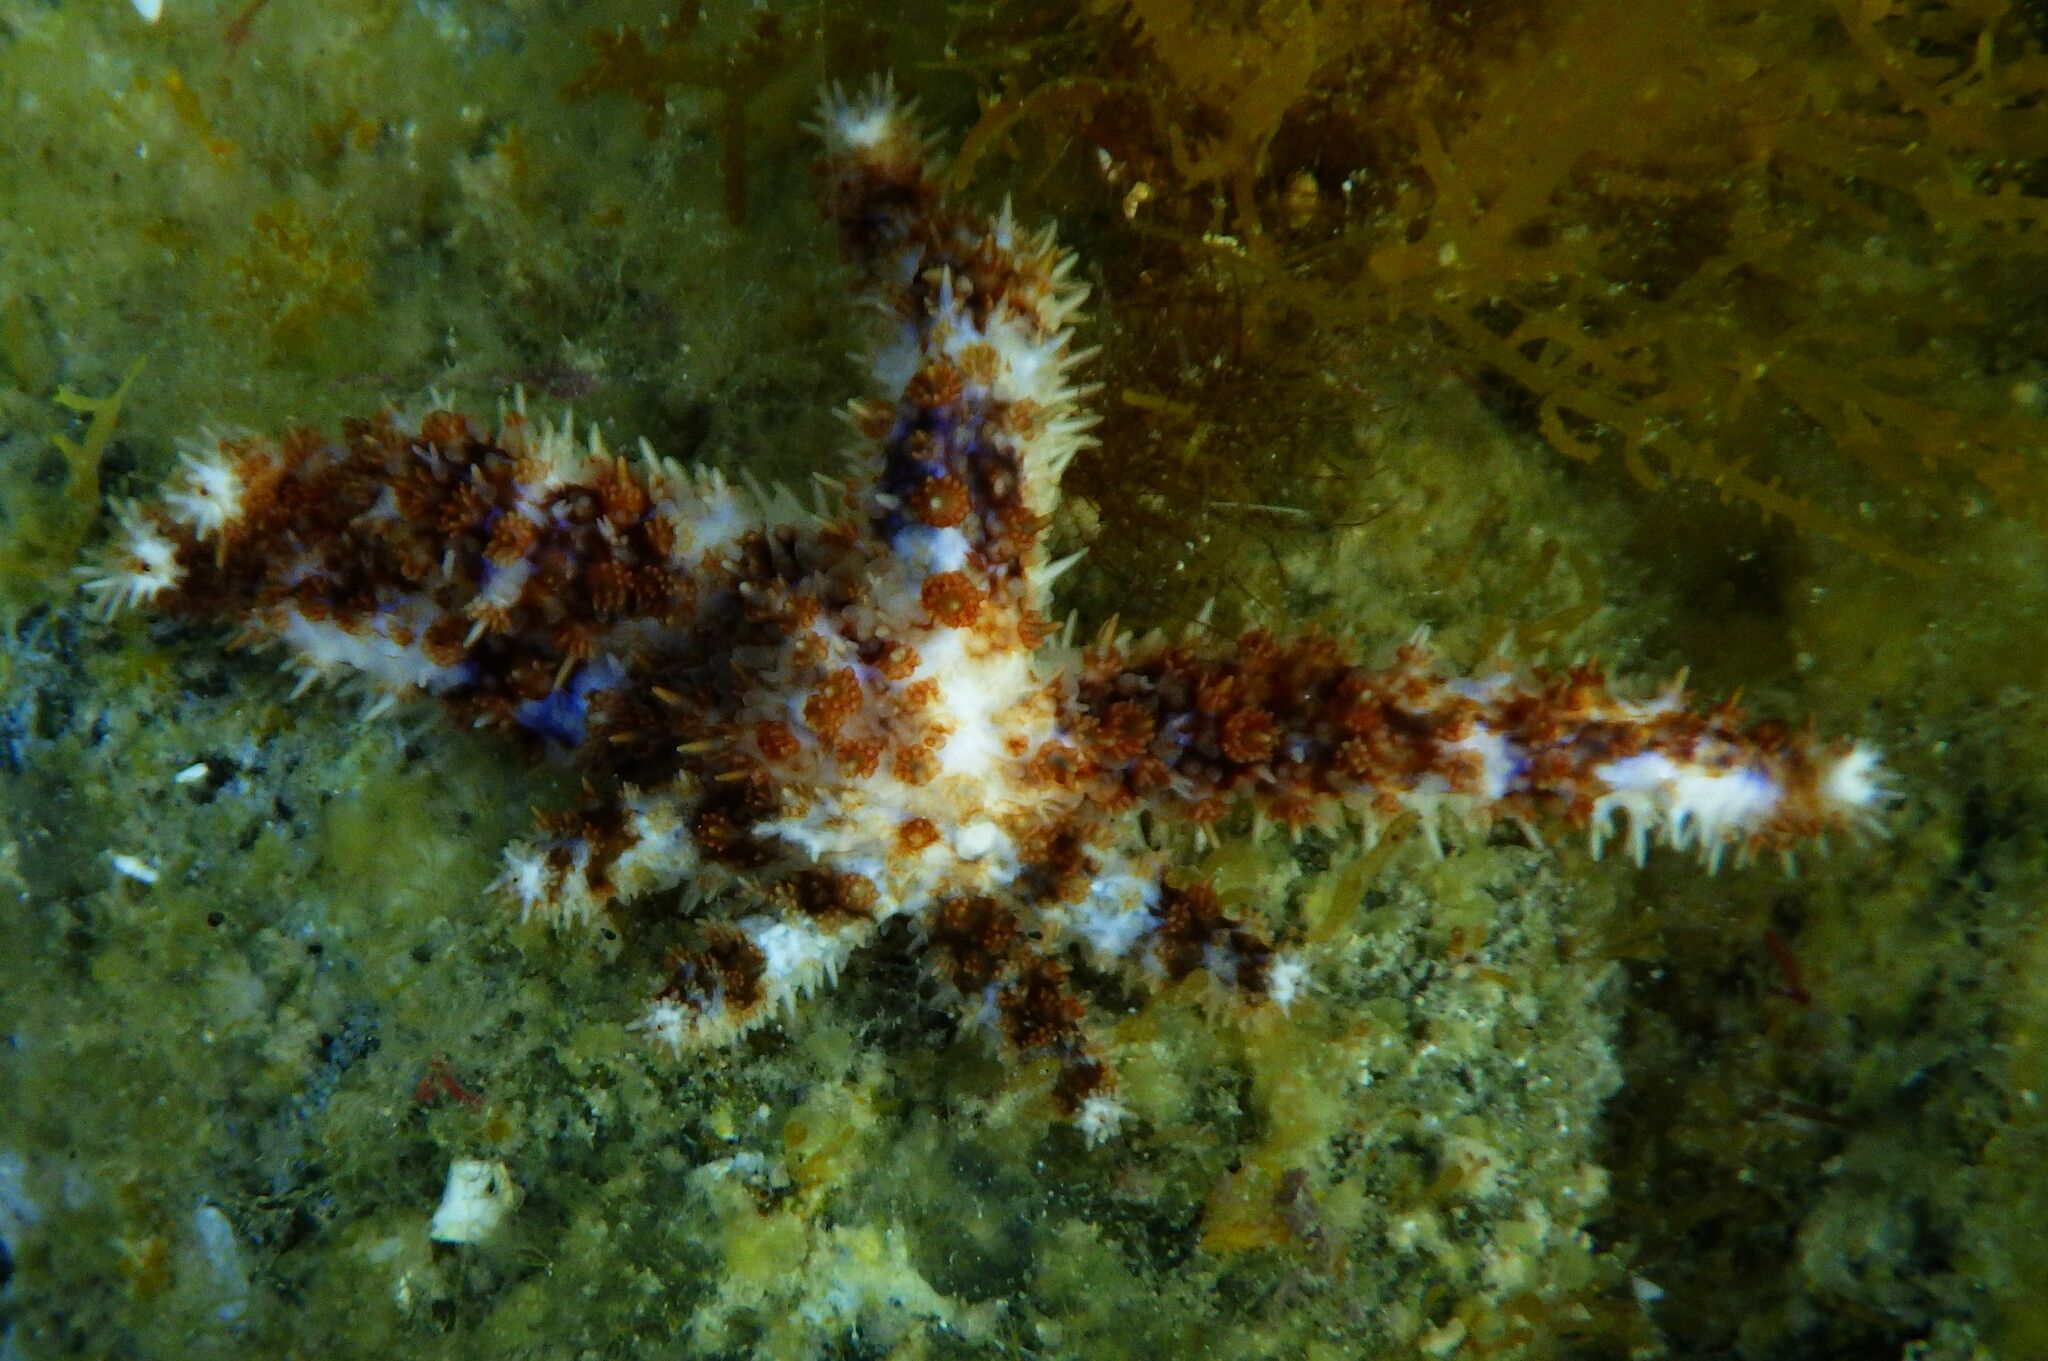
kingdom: Animalia
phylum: Echinodermata
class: Asteroidea
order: Forcipulatida
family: Asteriidae
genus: Coscinasterias
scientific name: Coscinasterias tenuispina
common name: Blue spiny starfish
